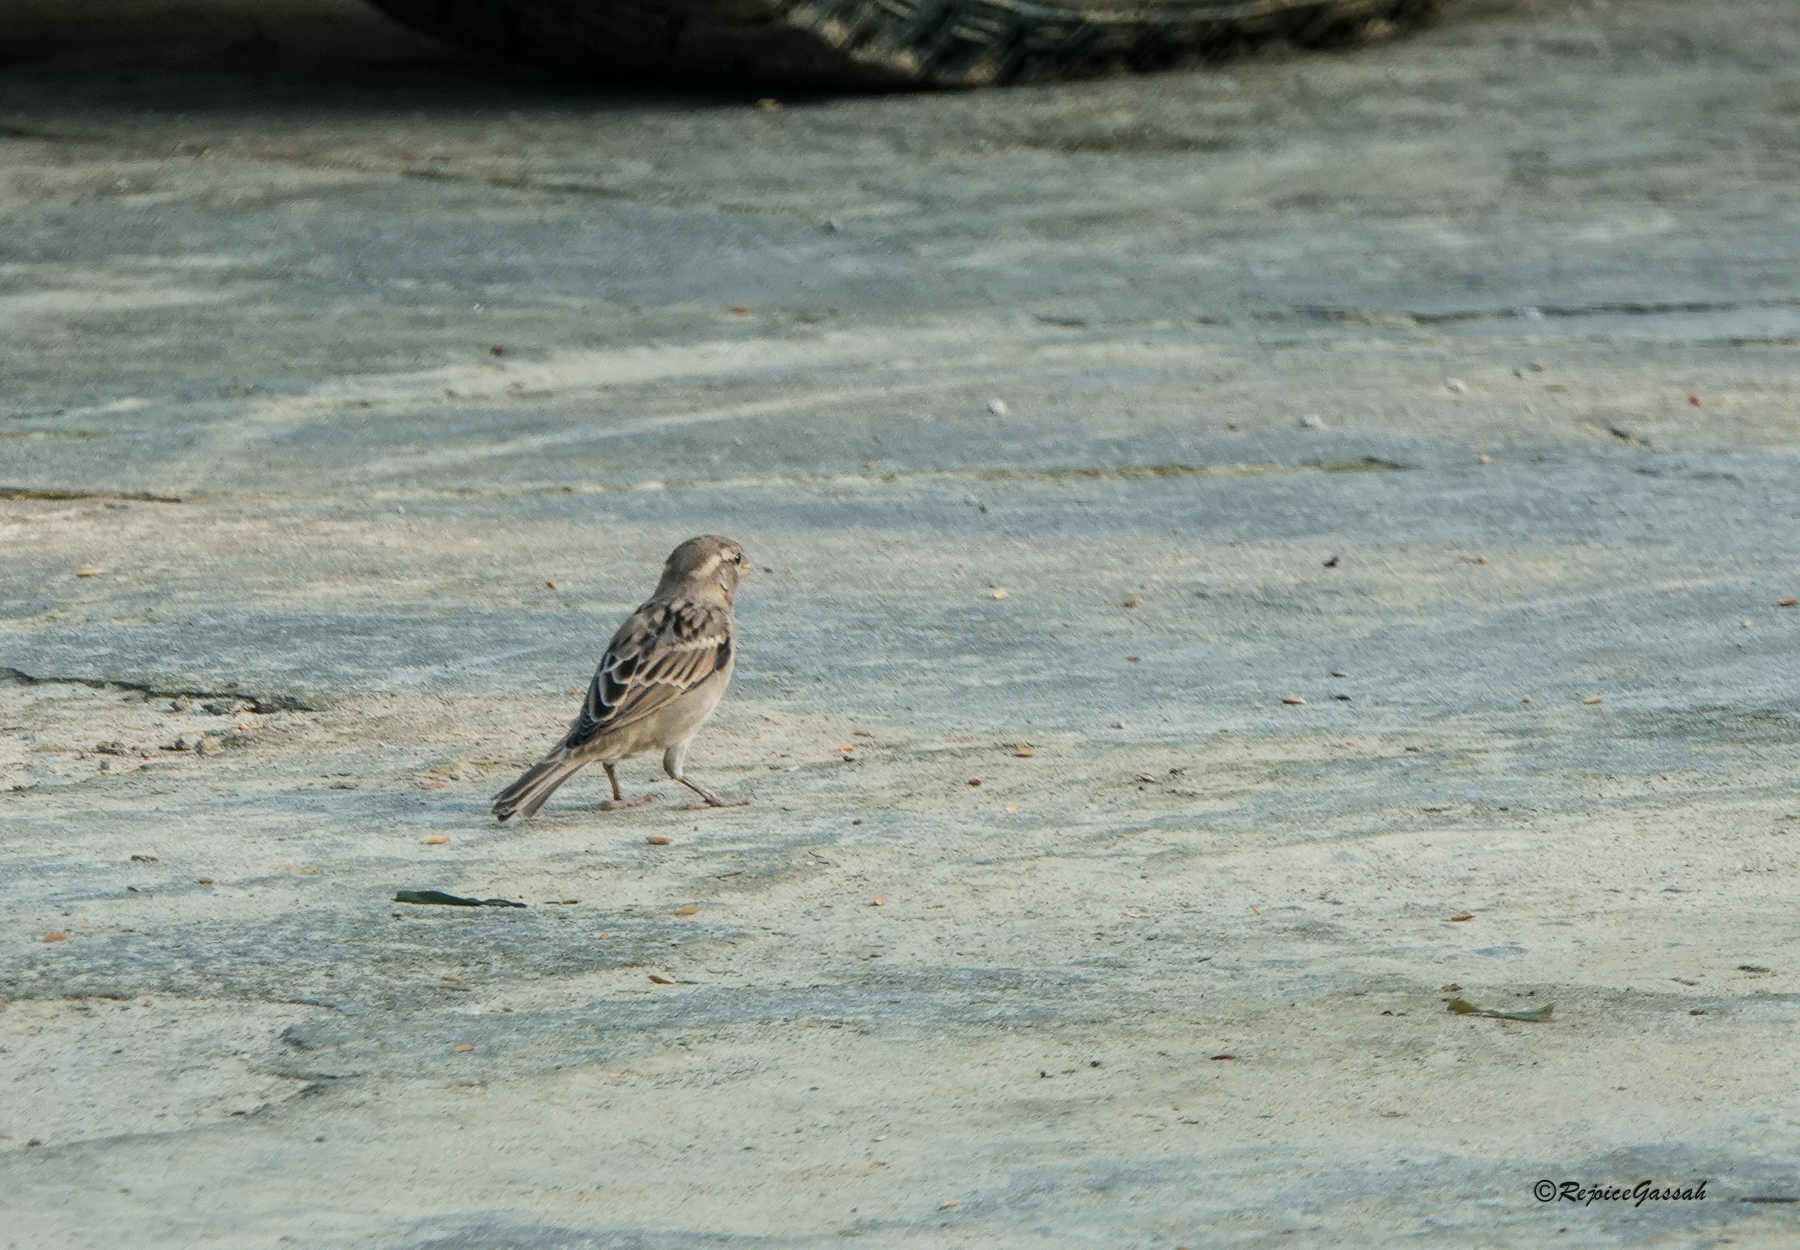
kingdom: Animalia
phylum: Chordata
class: Aves
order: Passeriformes
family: Passeridae
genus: Passer
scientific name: Passer domesticus
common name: House sparrow
